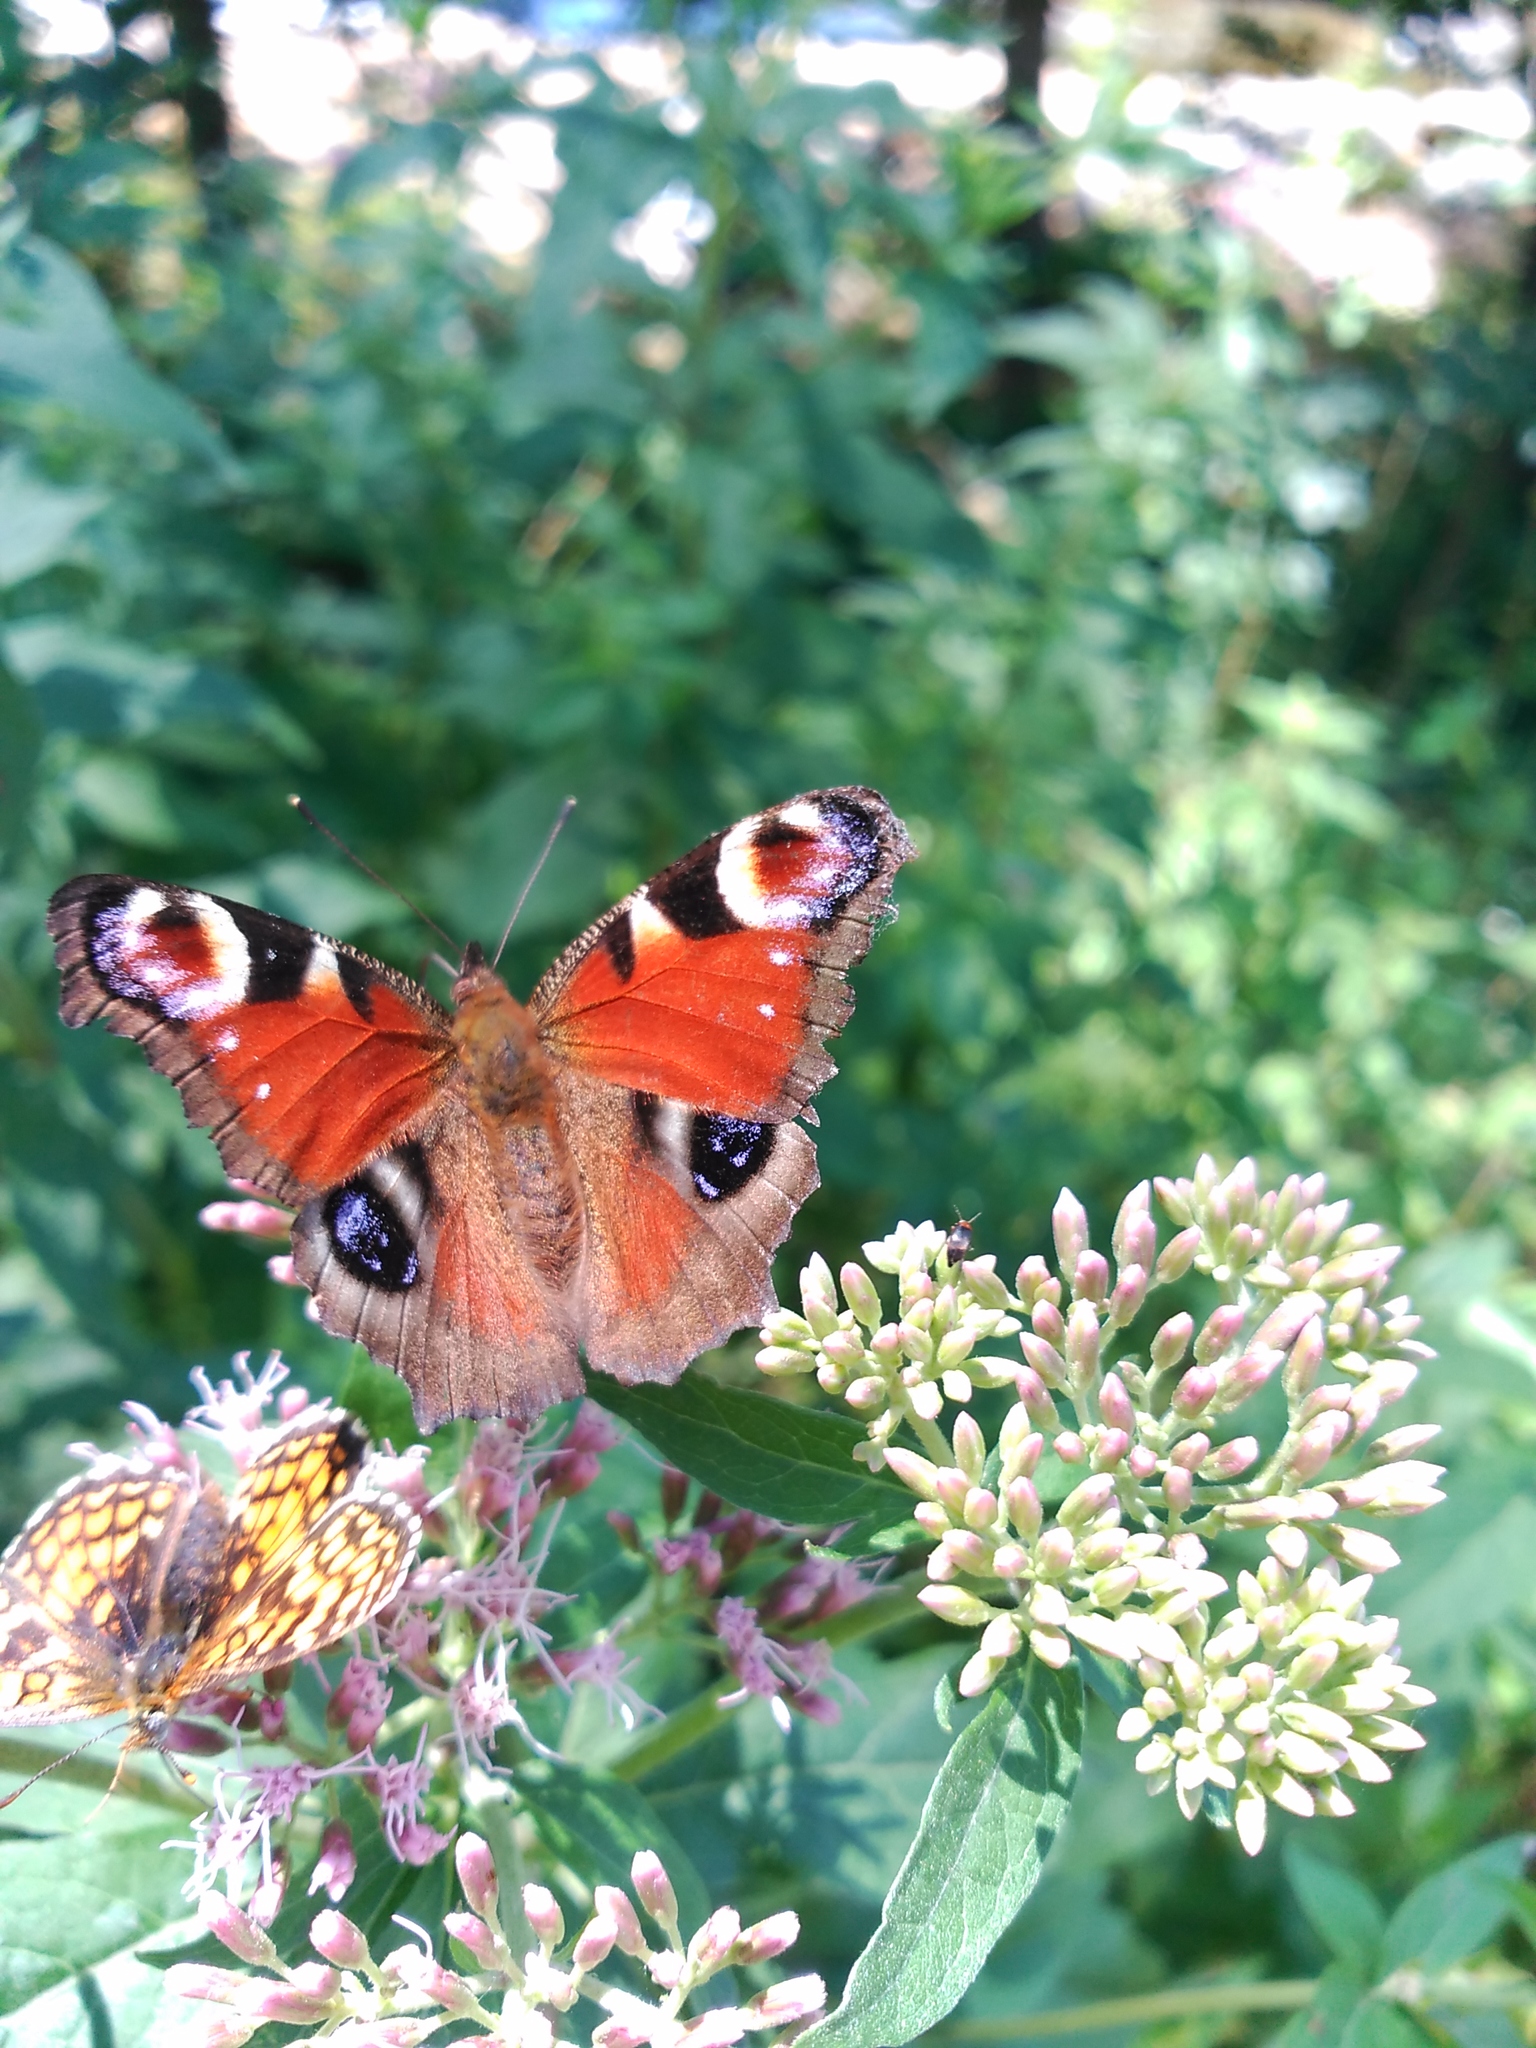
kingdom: Animalia
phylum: Arthropoda
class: Insecta
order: Lepidoptera
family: Nymphalidae
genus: Aglais
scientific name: Aglais io
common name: Peacock
